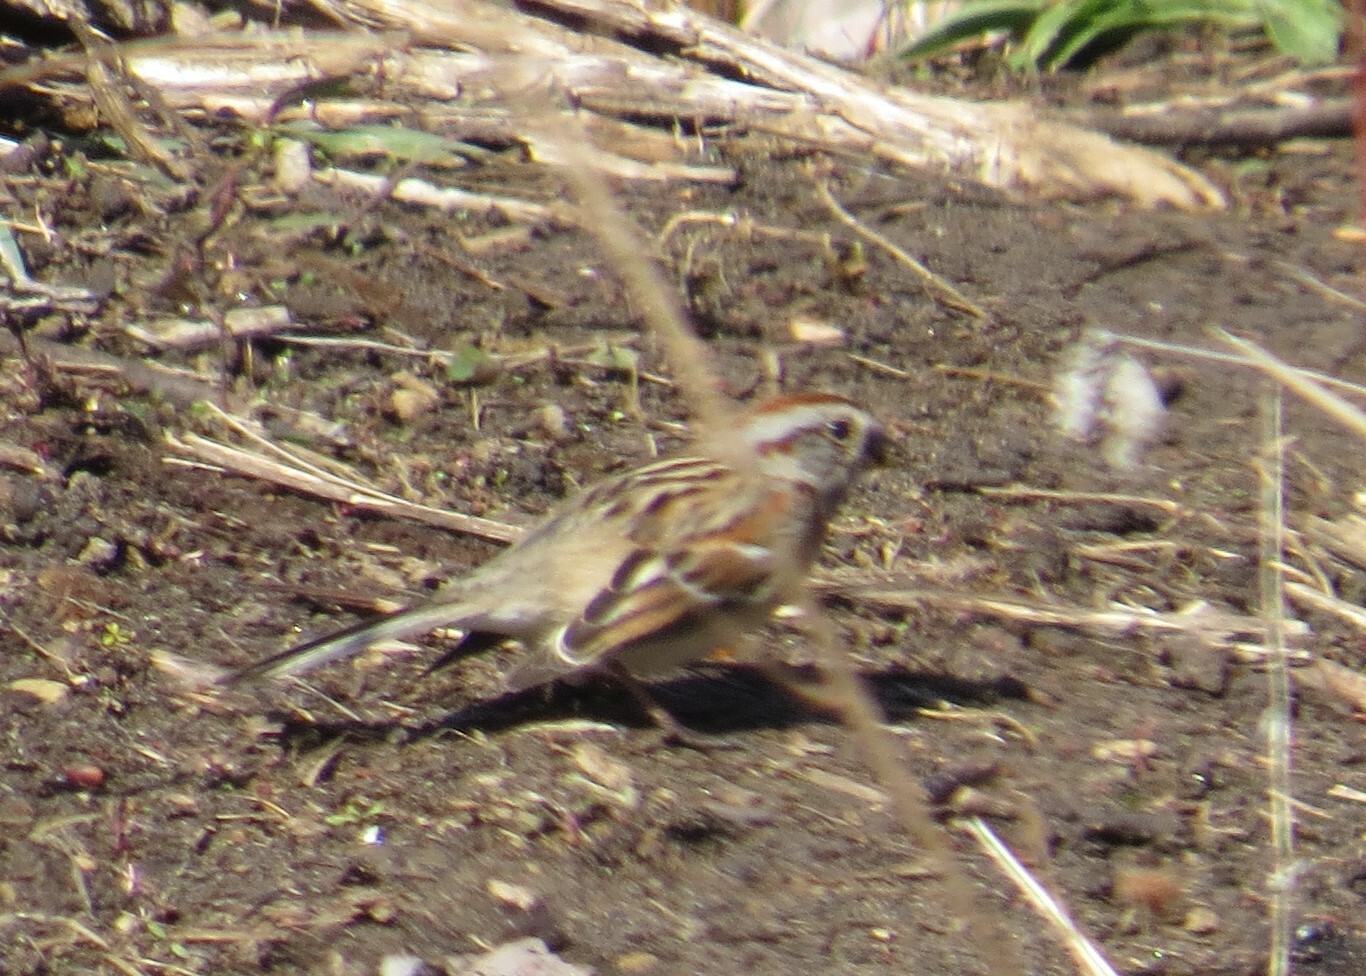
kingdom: Animalia
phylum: Chordata
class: Aves
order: Passeriformes
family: Passerellidae
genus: Spizelloides
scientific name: Spizelloides arborea
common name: American tree sparrow
